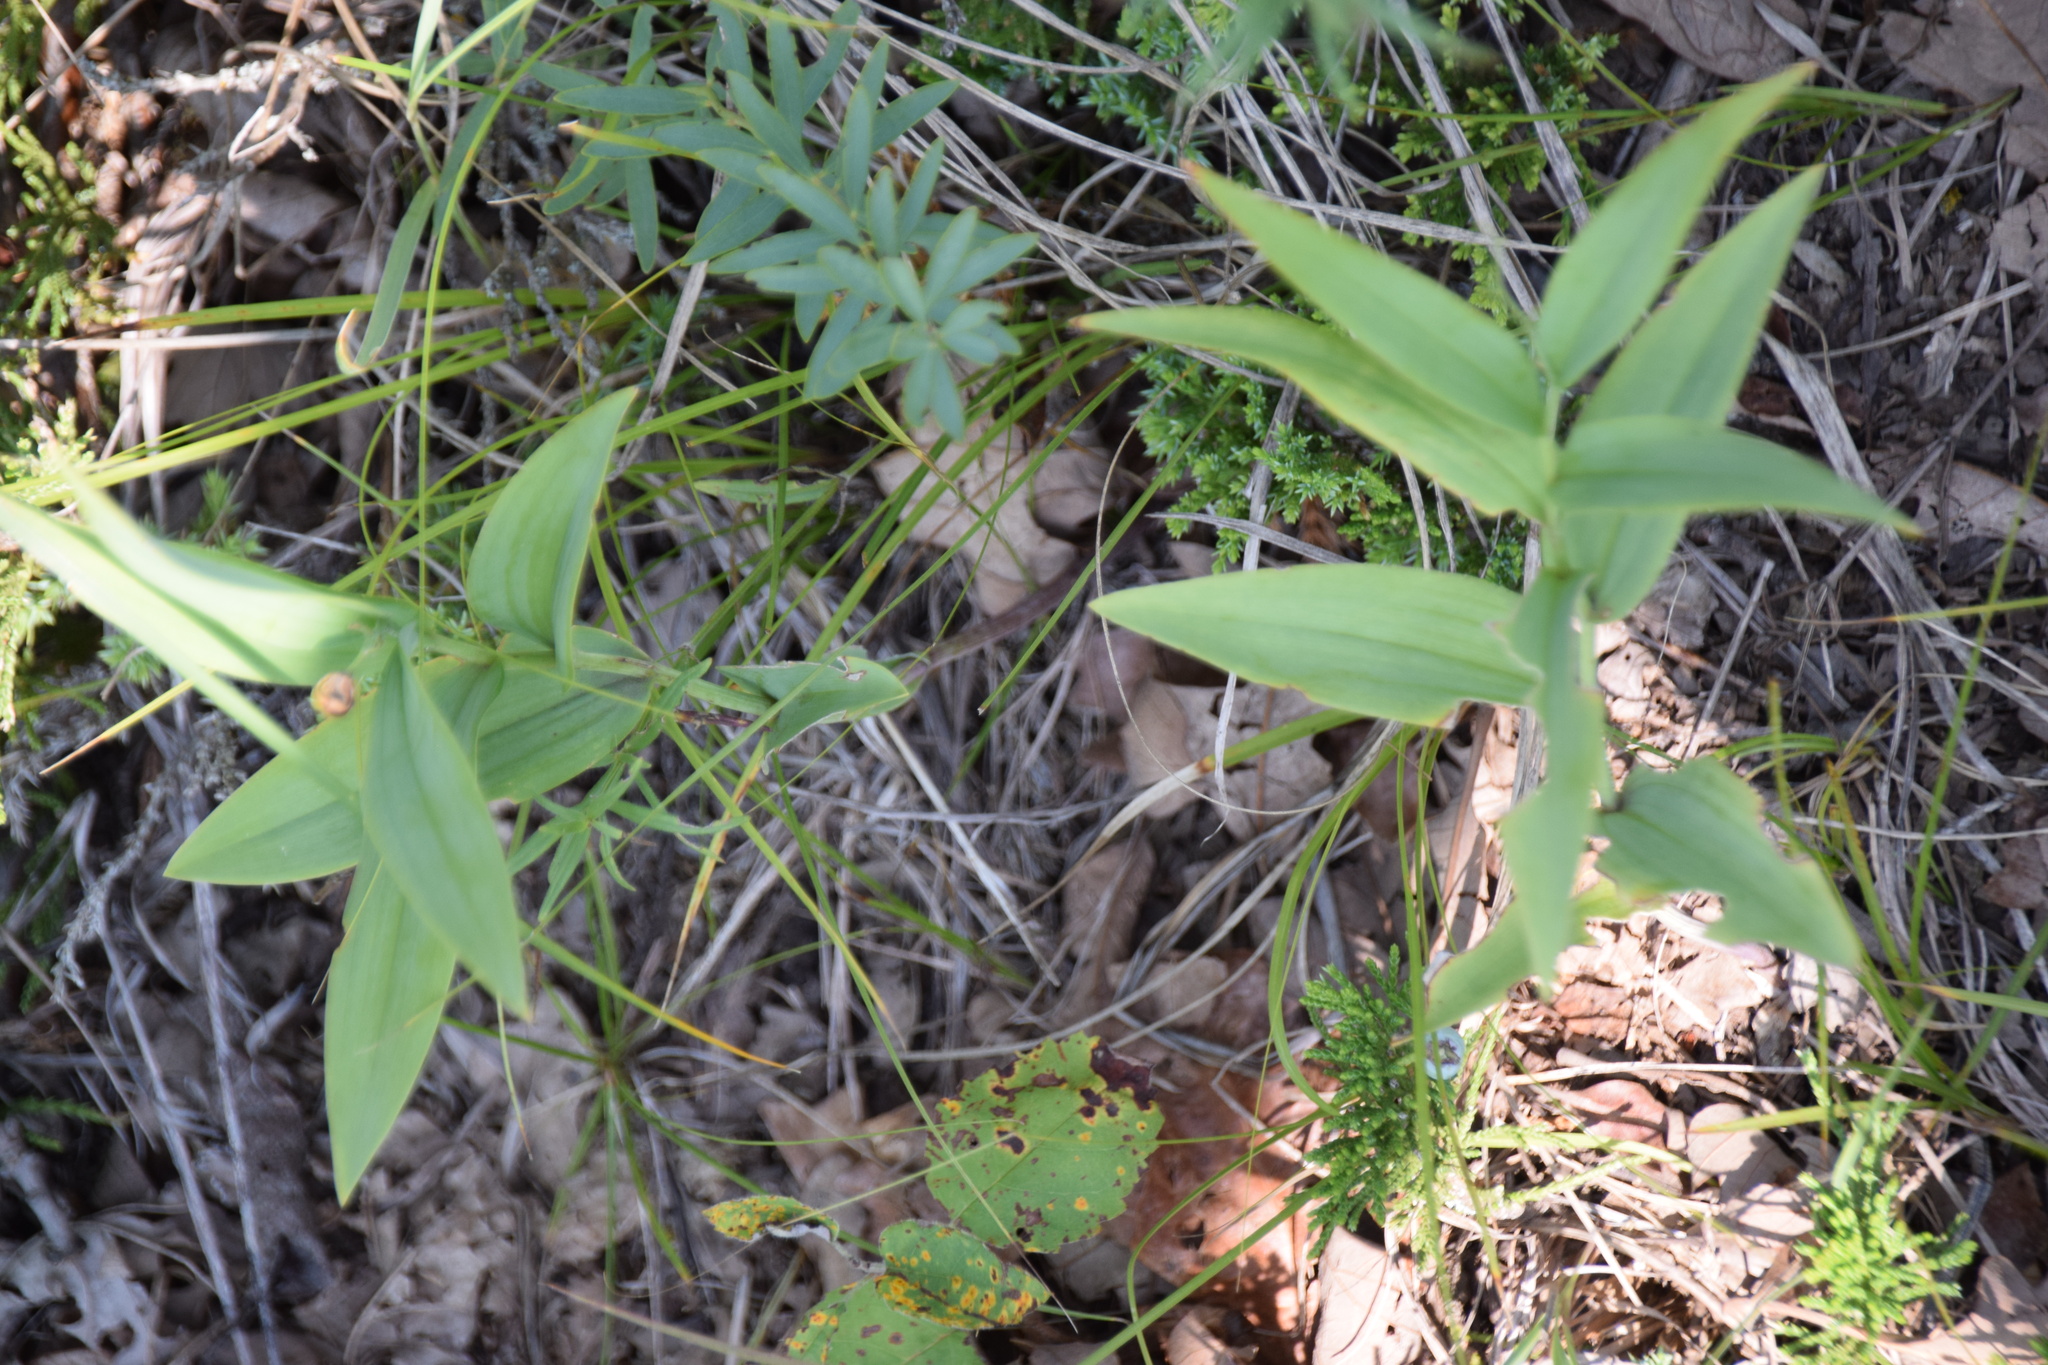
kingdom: Plantae
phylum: Tracheophyta
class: Liliopsida
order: Asparagales
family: Asparagaceae
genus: Maianthemum
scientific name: Maianthemum stellatum
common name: Little false solomon's seal
